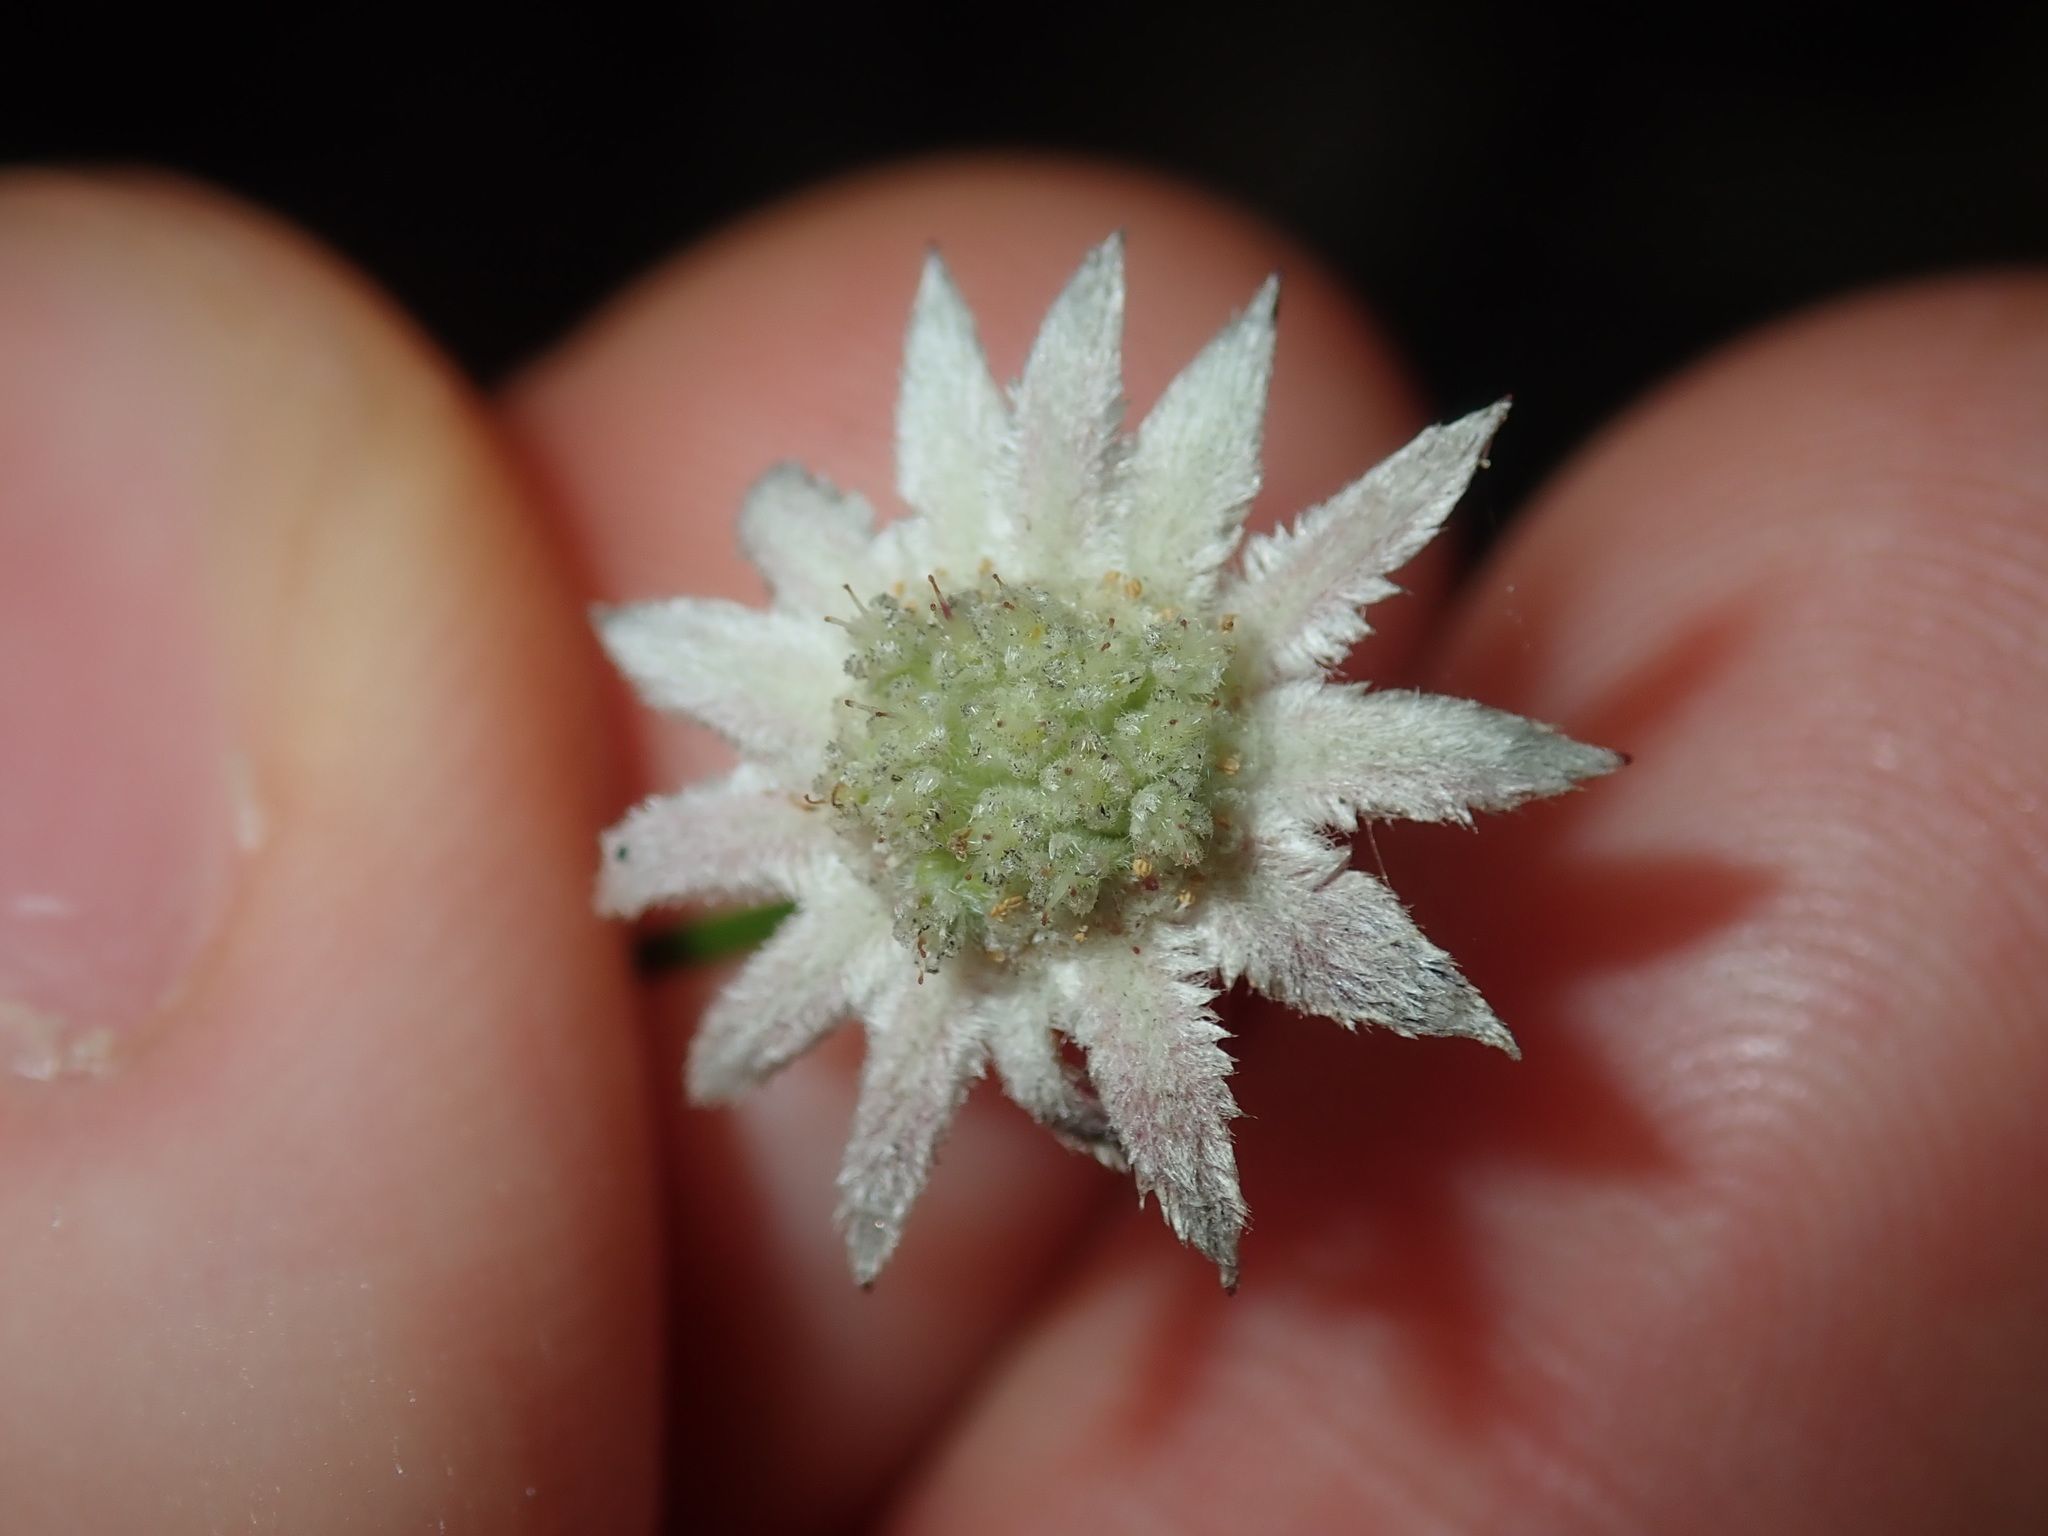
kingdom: Plantae
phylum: Tracheophyta
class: Magnoliopsida
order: Apiales
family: Apiaceae
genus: Actinotus
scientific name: Actinotus minor
